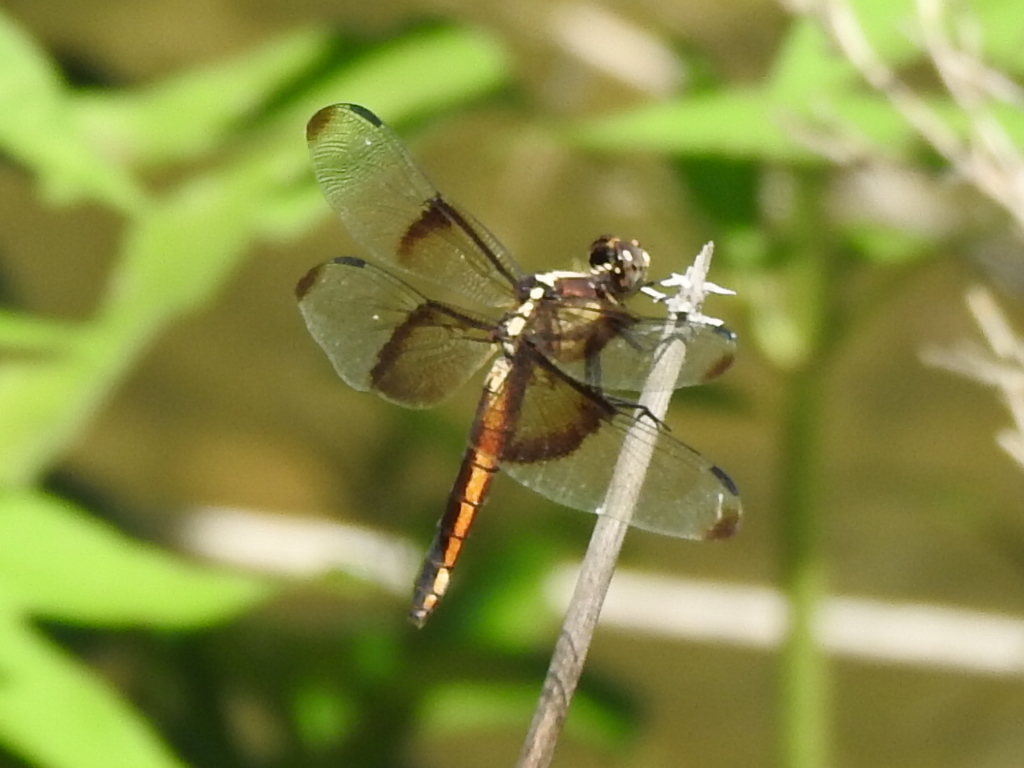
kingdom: Animalia
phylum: Arthropoda
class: Insecta
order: Odonata
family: Libellulidae
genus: Libellula
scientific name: Libellula luctuosa
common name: Widow skimmer
